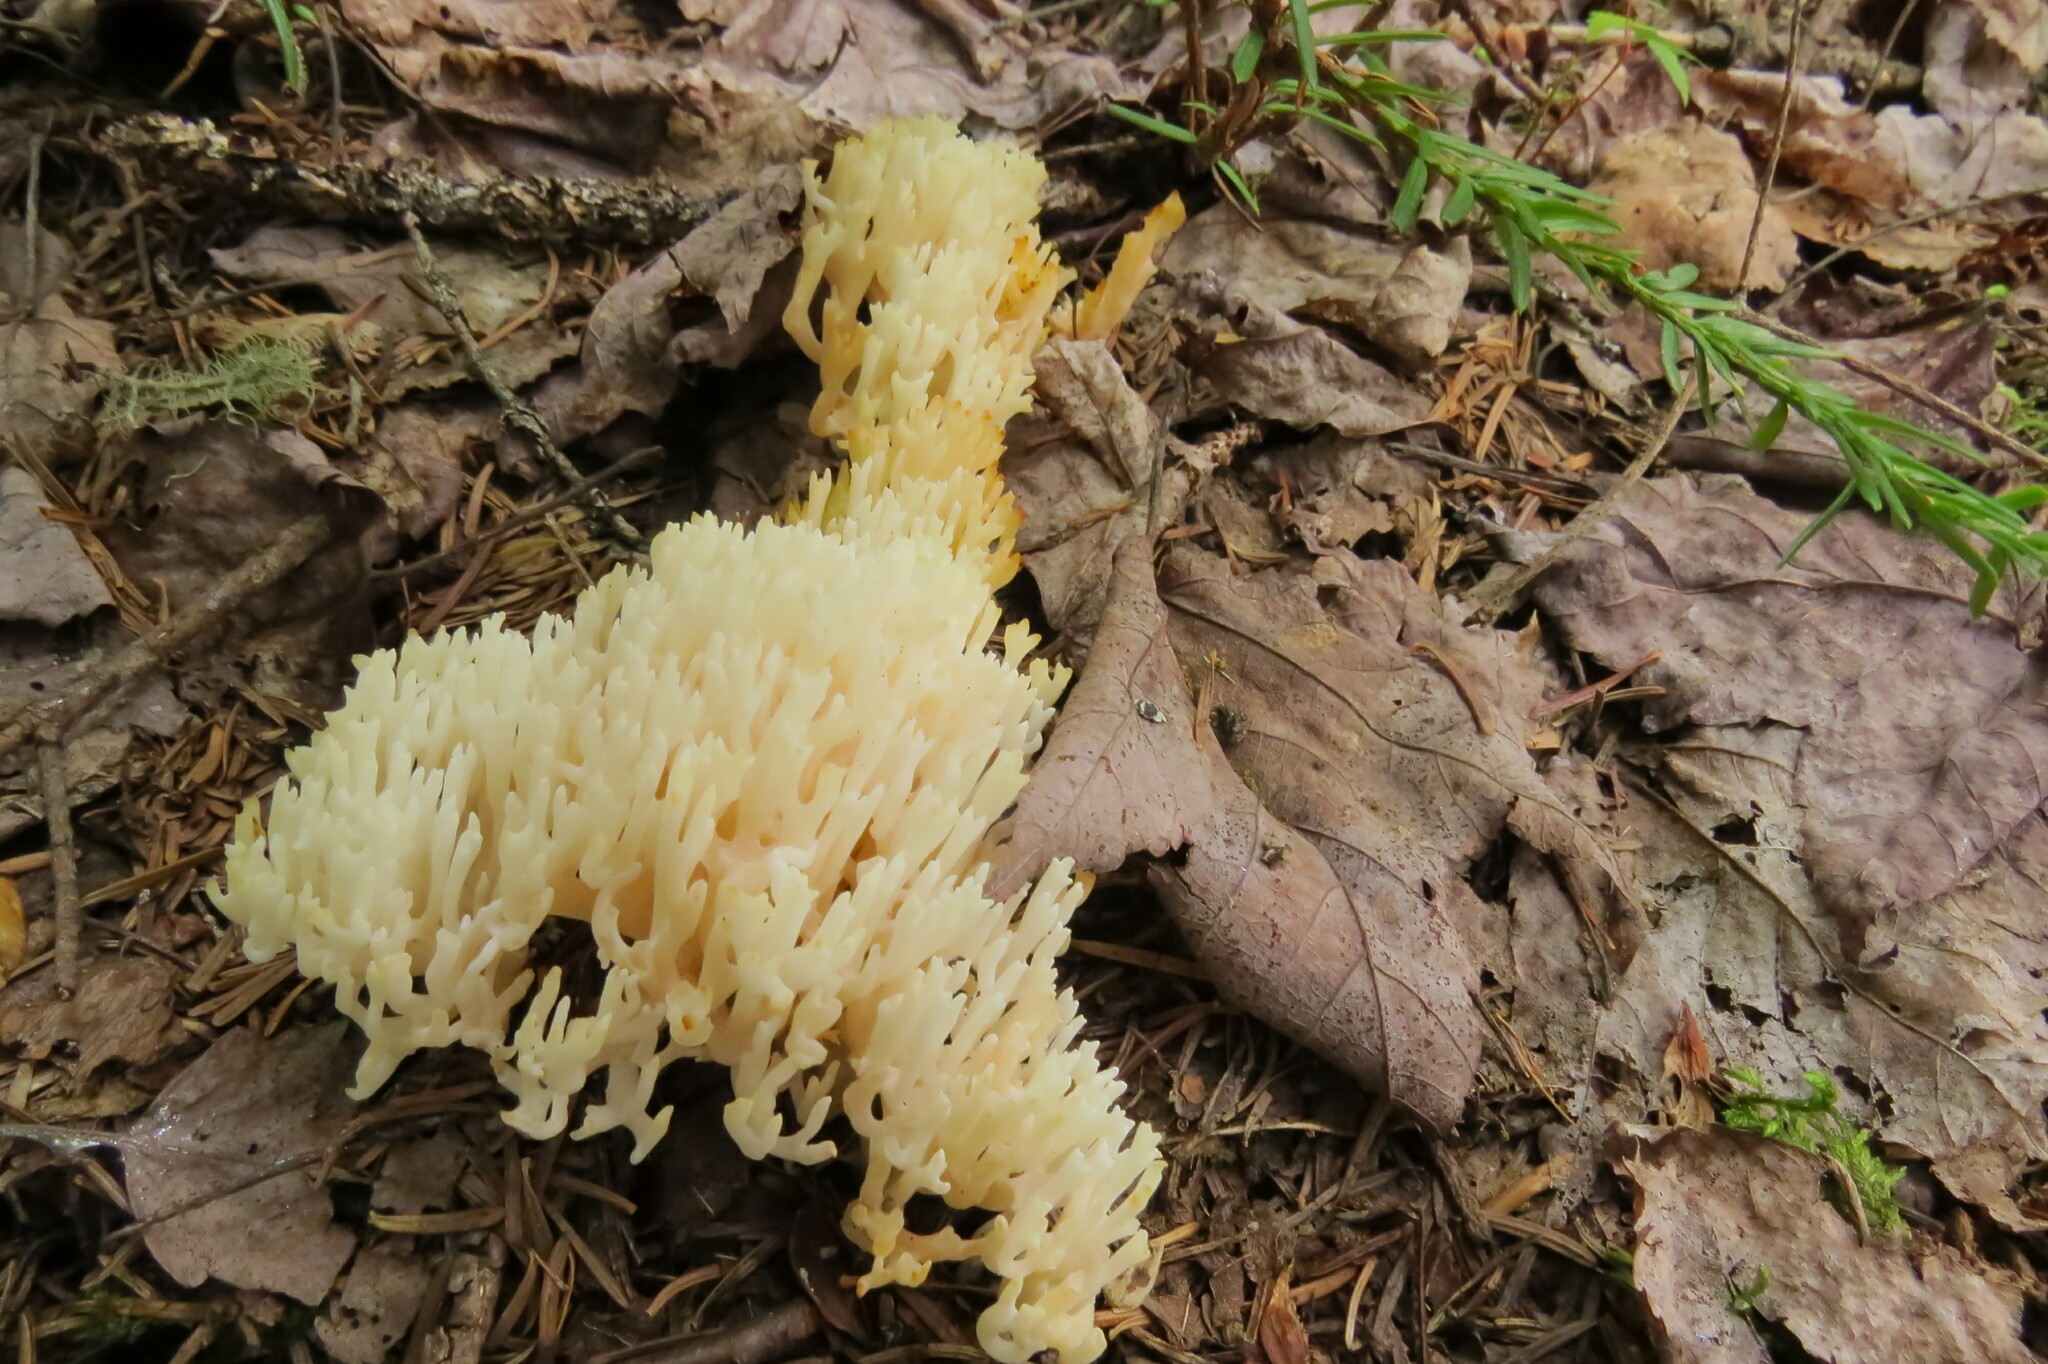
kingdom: Fungi
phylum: Basidiomycota
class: Agaricomycetes
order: Agaricales
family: Clavariaceae
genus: Ramariopsis
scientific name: Ramariopsis kunzei
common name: Ivory coral
